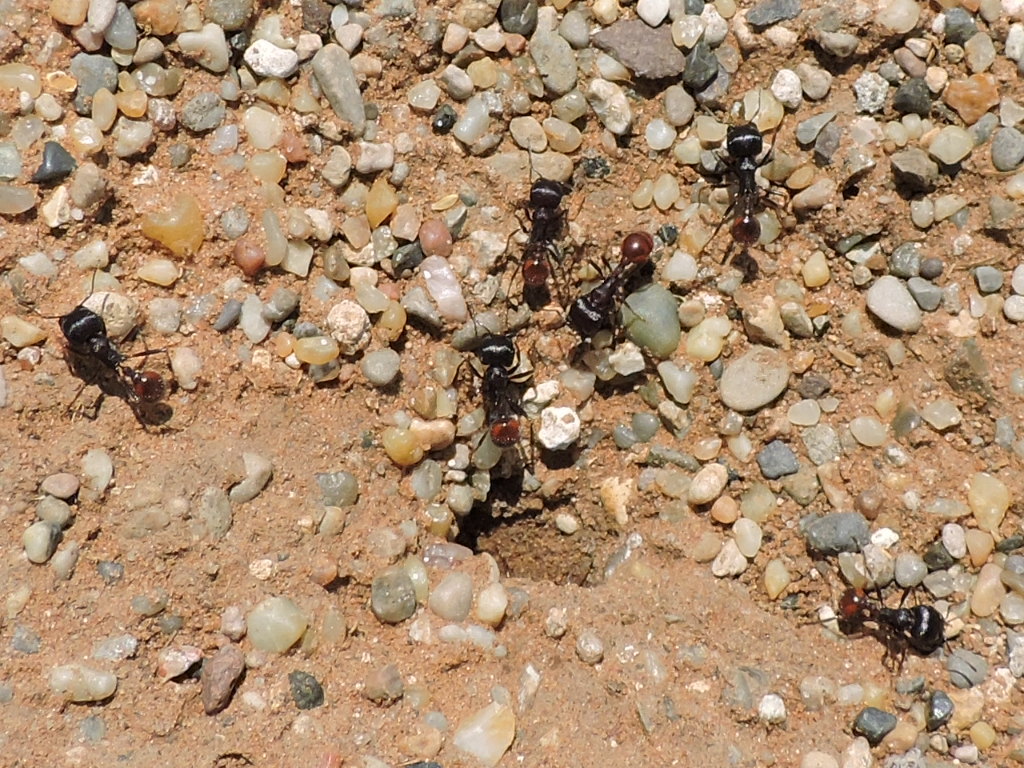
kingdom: Animalia
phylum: Arthropoda
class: Insecta
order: Hymenoptera
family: Formicidae
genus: Pogonomyrmex
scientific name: Pogonomyrmex rugosus
